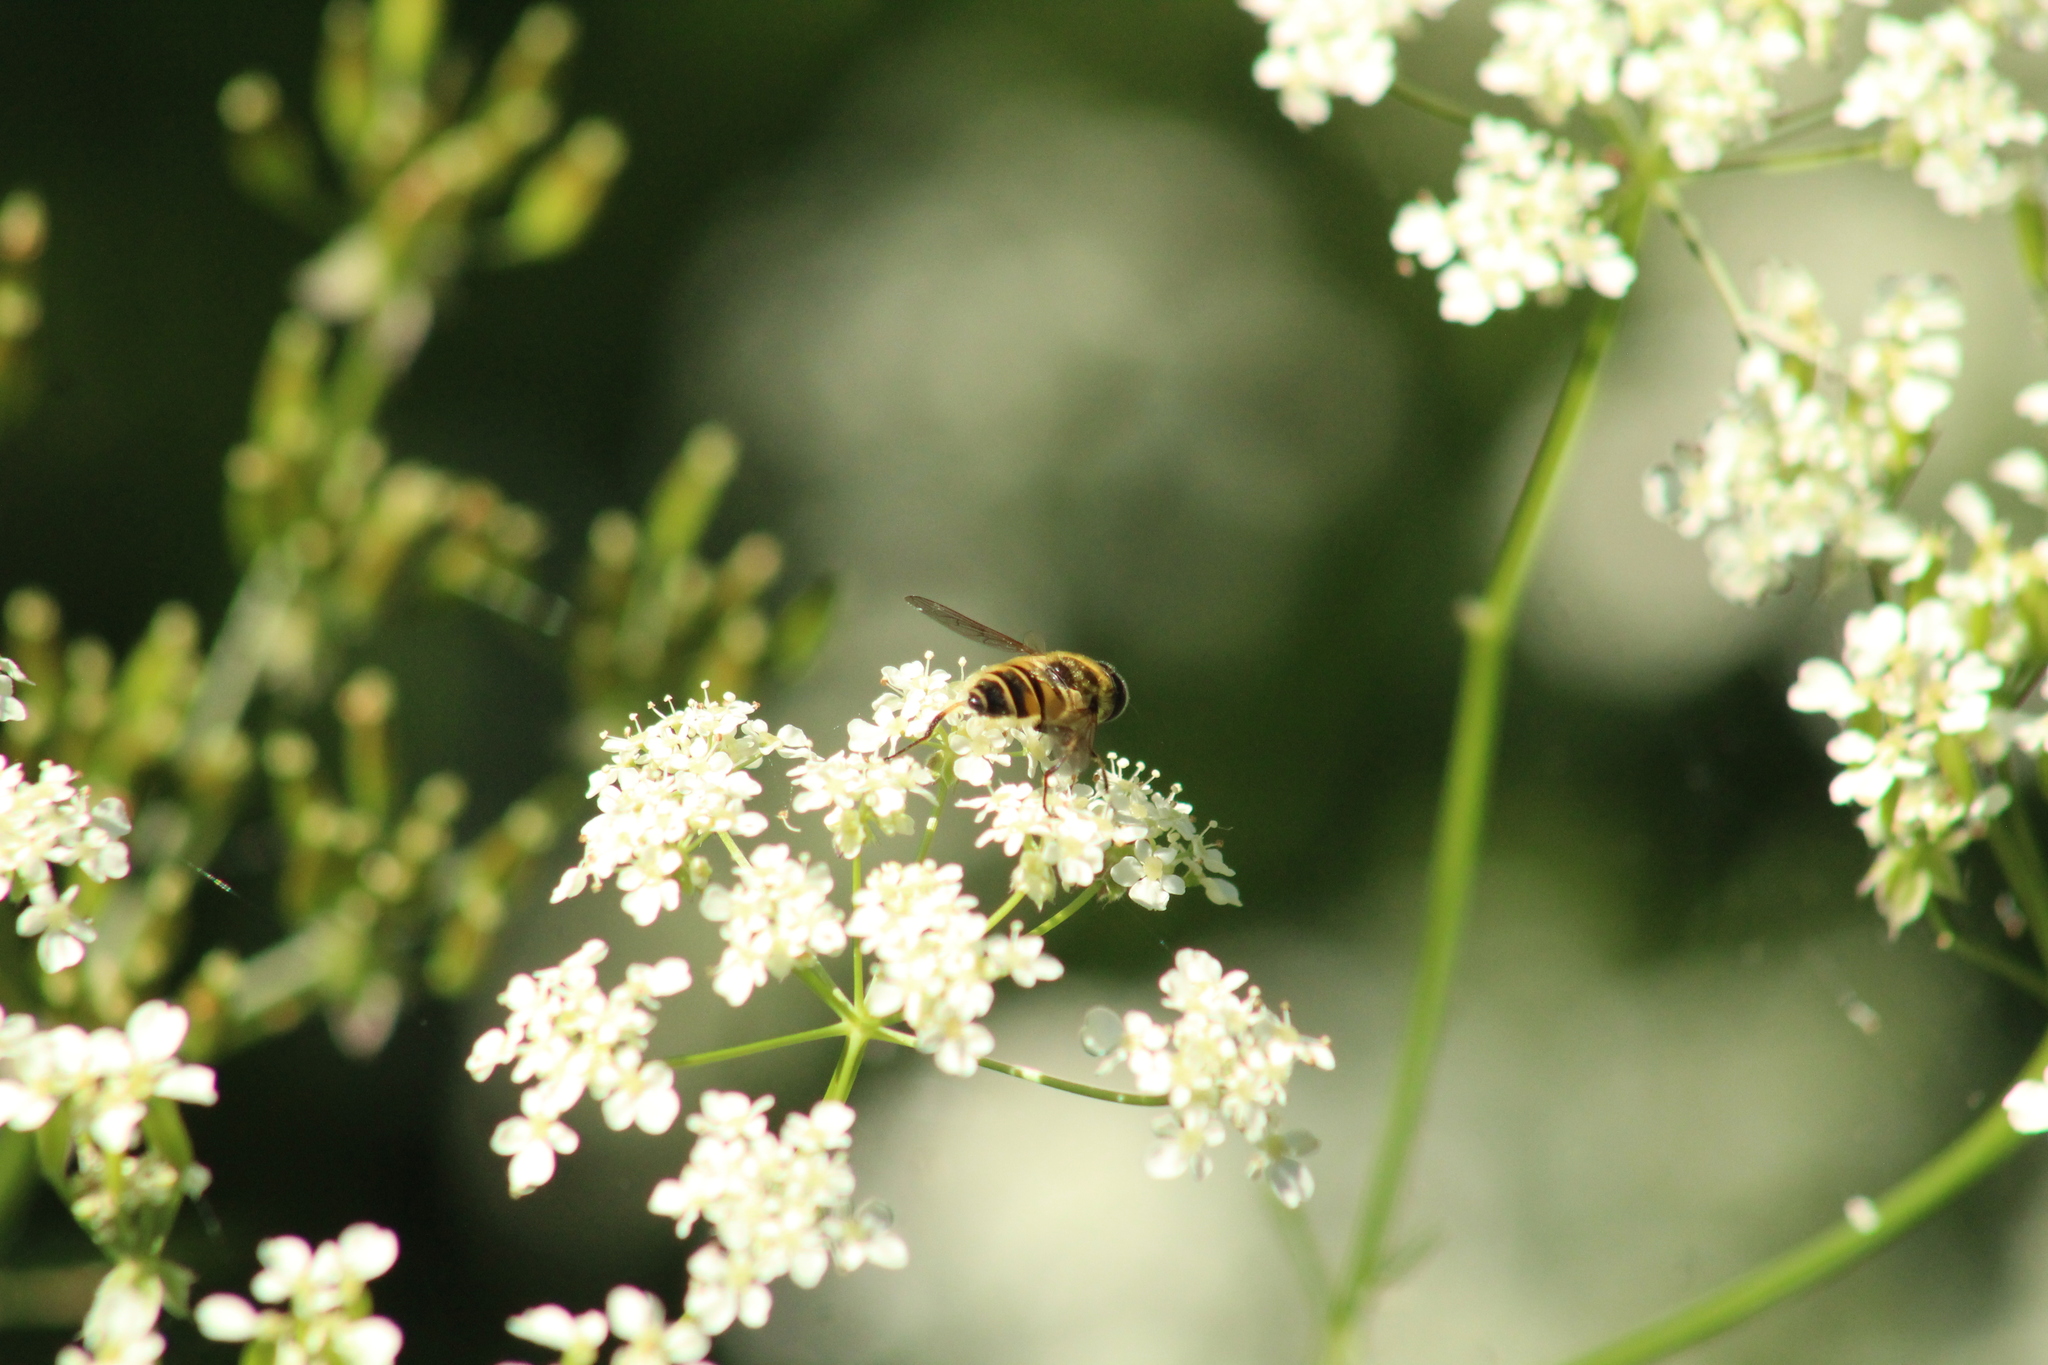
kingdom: Animalia
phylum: Arthropoda
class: Insecta
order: Diptera
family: Syrphidae
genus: Myathropa
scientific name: Myathropa florea
